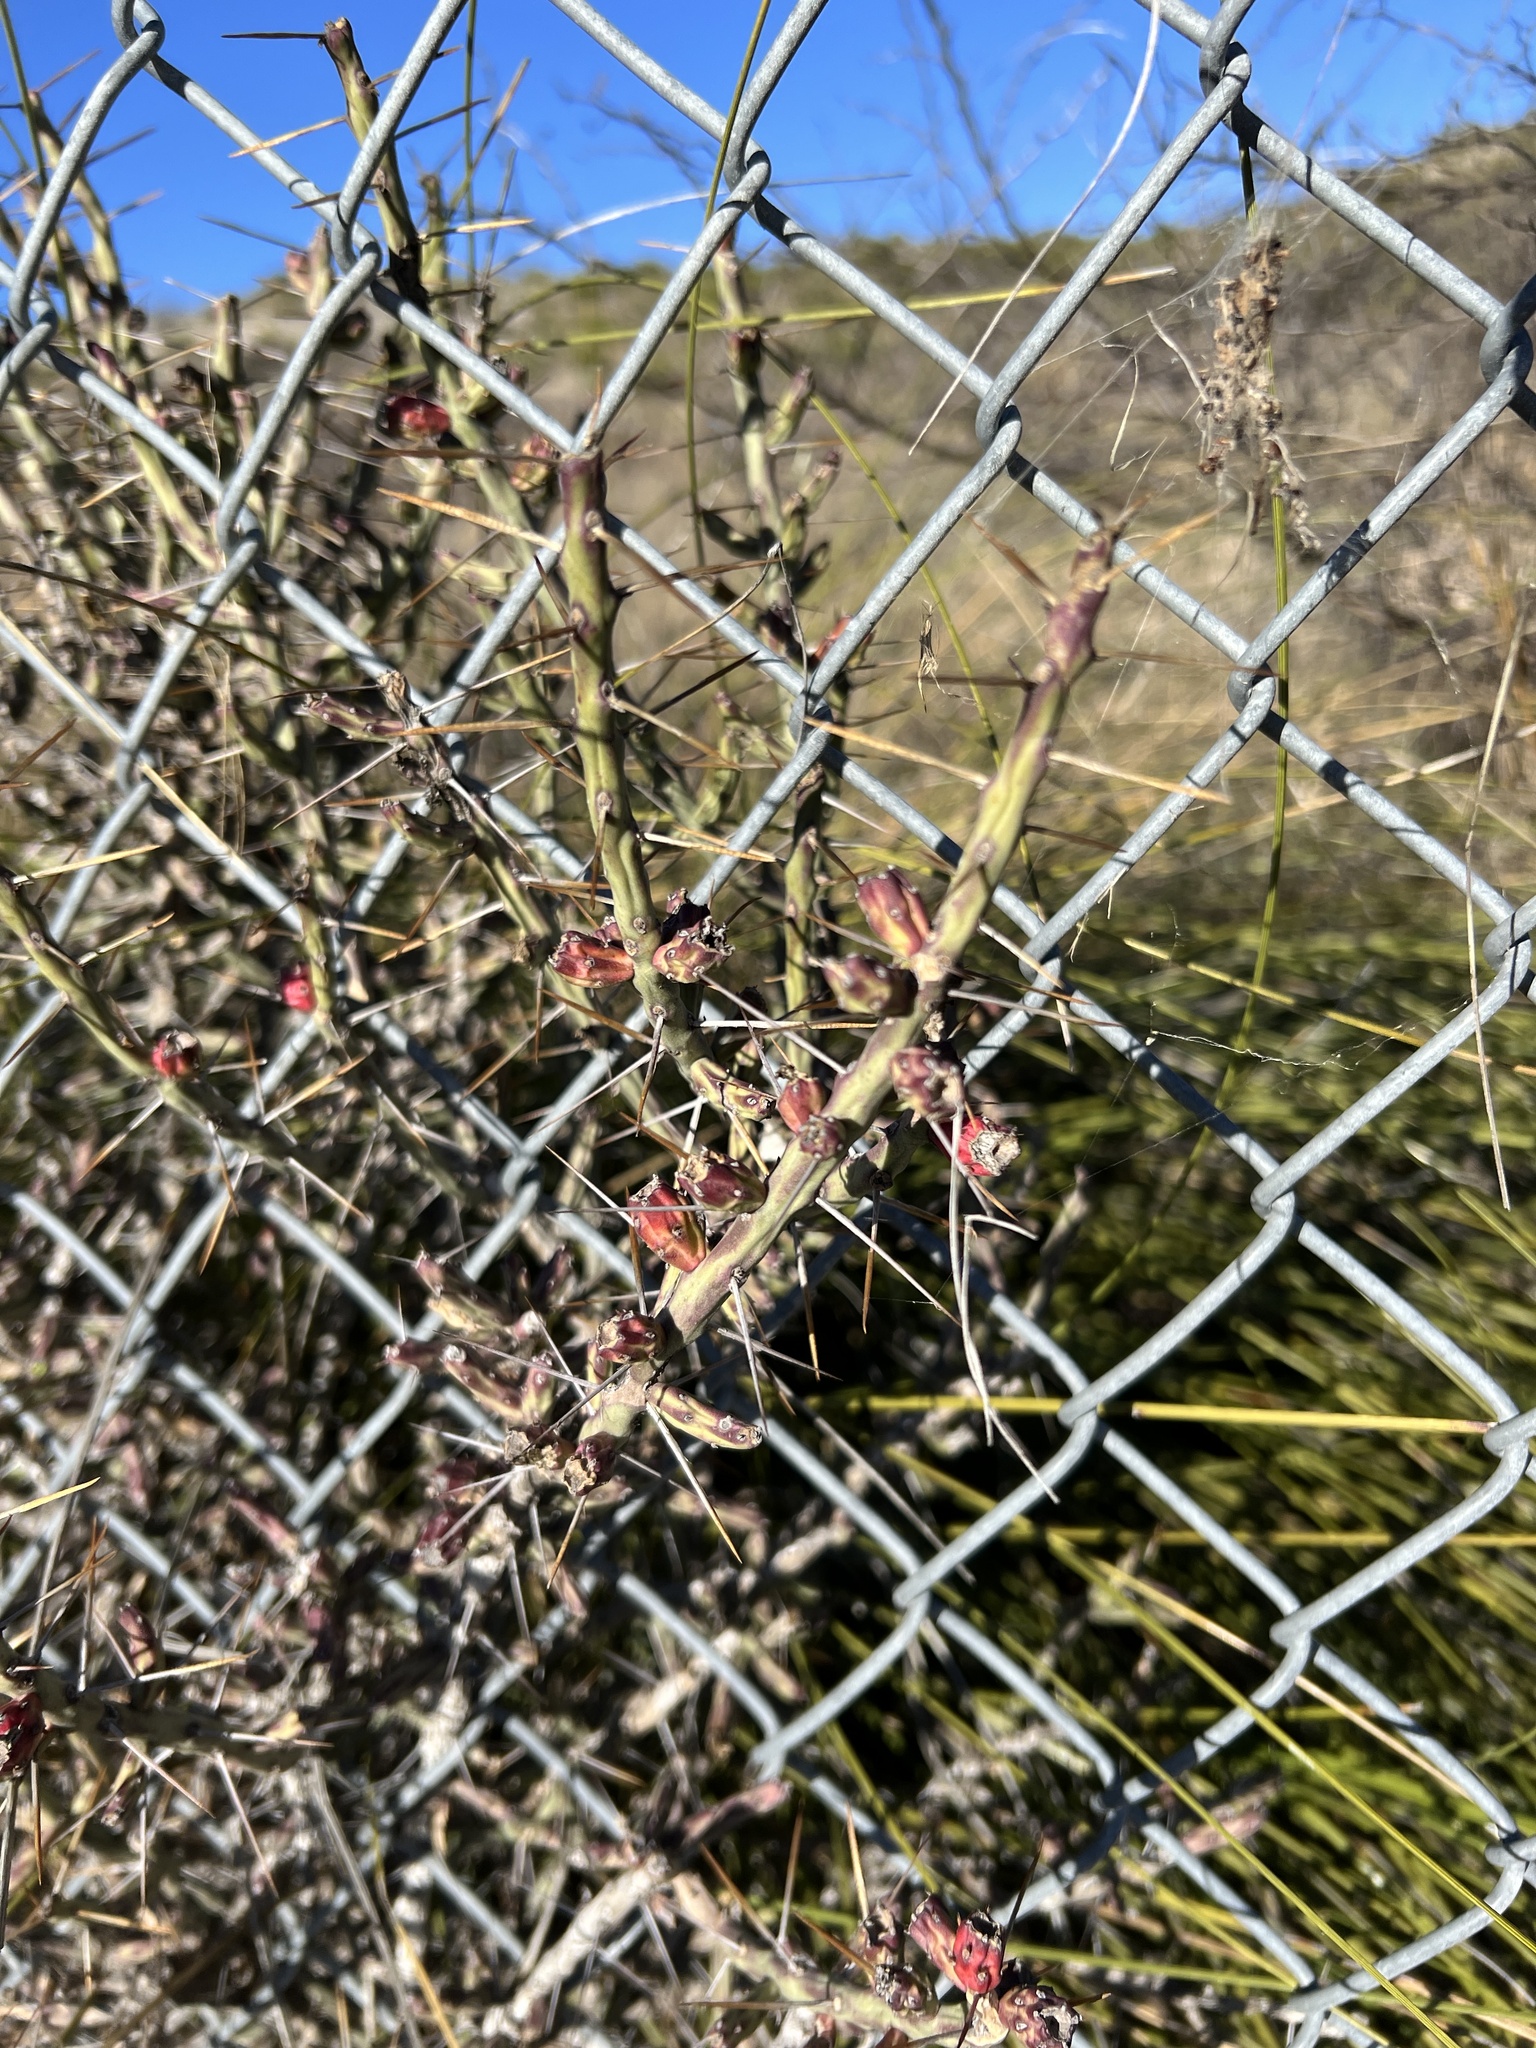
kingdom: Plantae
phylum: Tracheophyta
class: Magnoliopsida
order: Caryophyllales
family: Cactaceae
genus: Cylindropuntia
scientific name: Cylindropuntia leptocaulis
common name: Christmas cactus
